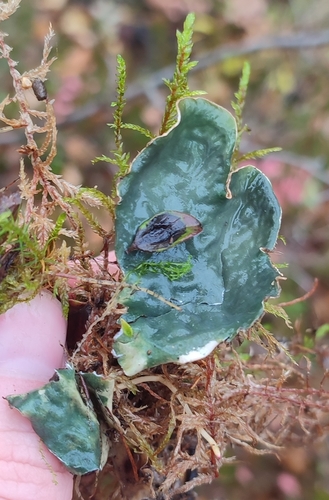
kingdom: Fungi
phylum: Ascomycota
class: Lecanoromycetes
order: Peltigerales
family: Peltigeraceae
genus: Peltigera
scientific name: Peltigera
